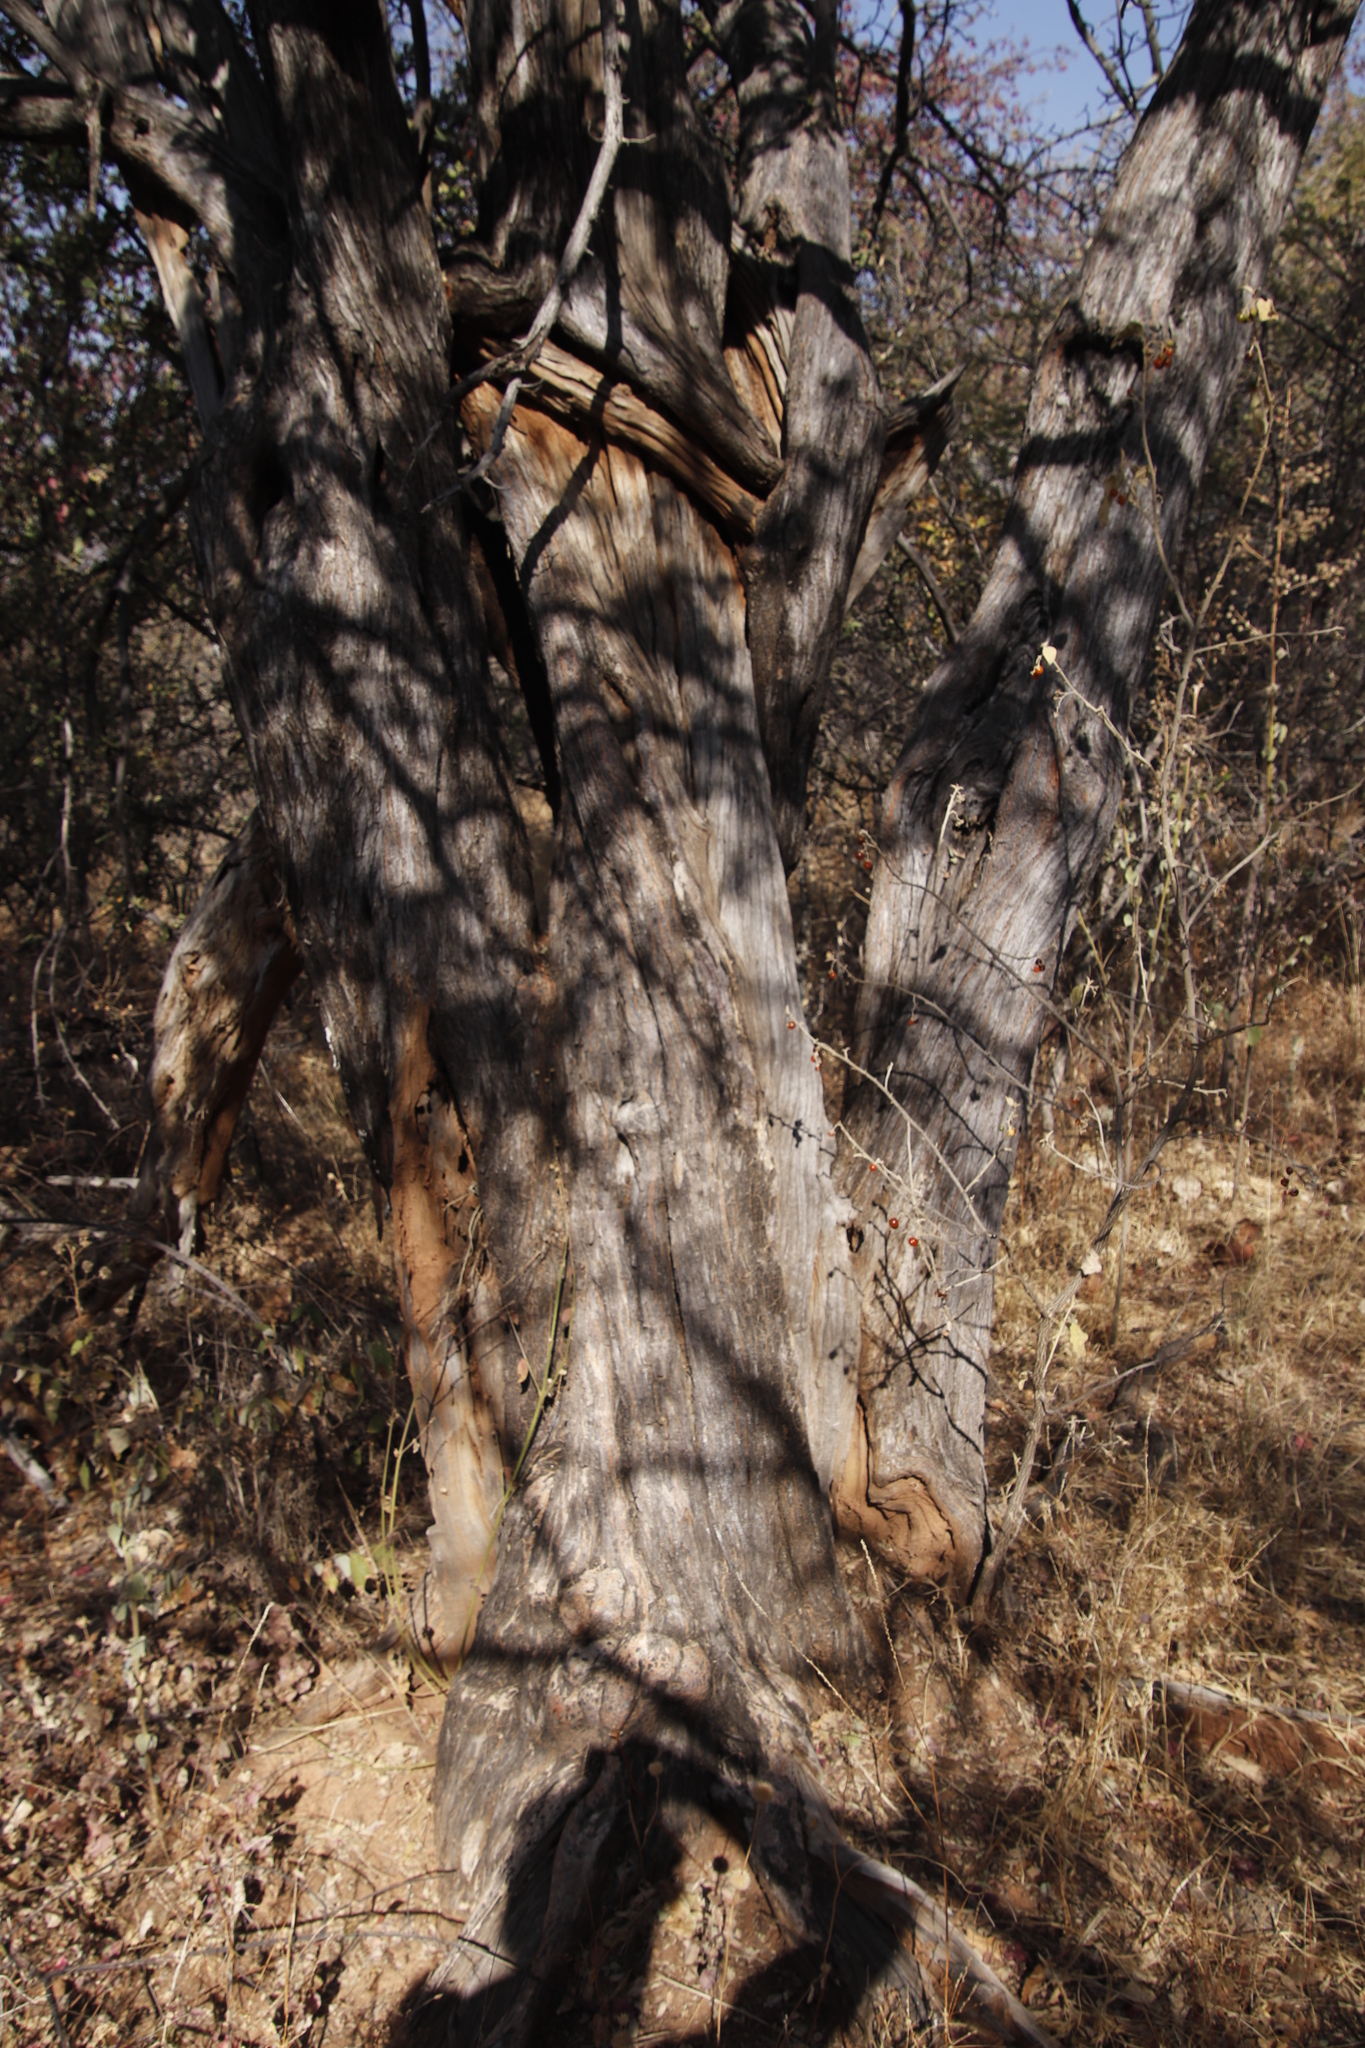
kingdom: Plantae
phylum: Tracheophyta
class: Magnoliopsida
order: Fabales
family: Fabaceae
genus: Senegalia
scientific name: Senegalia erubescens
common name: Bluethorn
